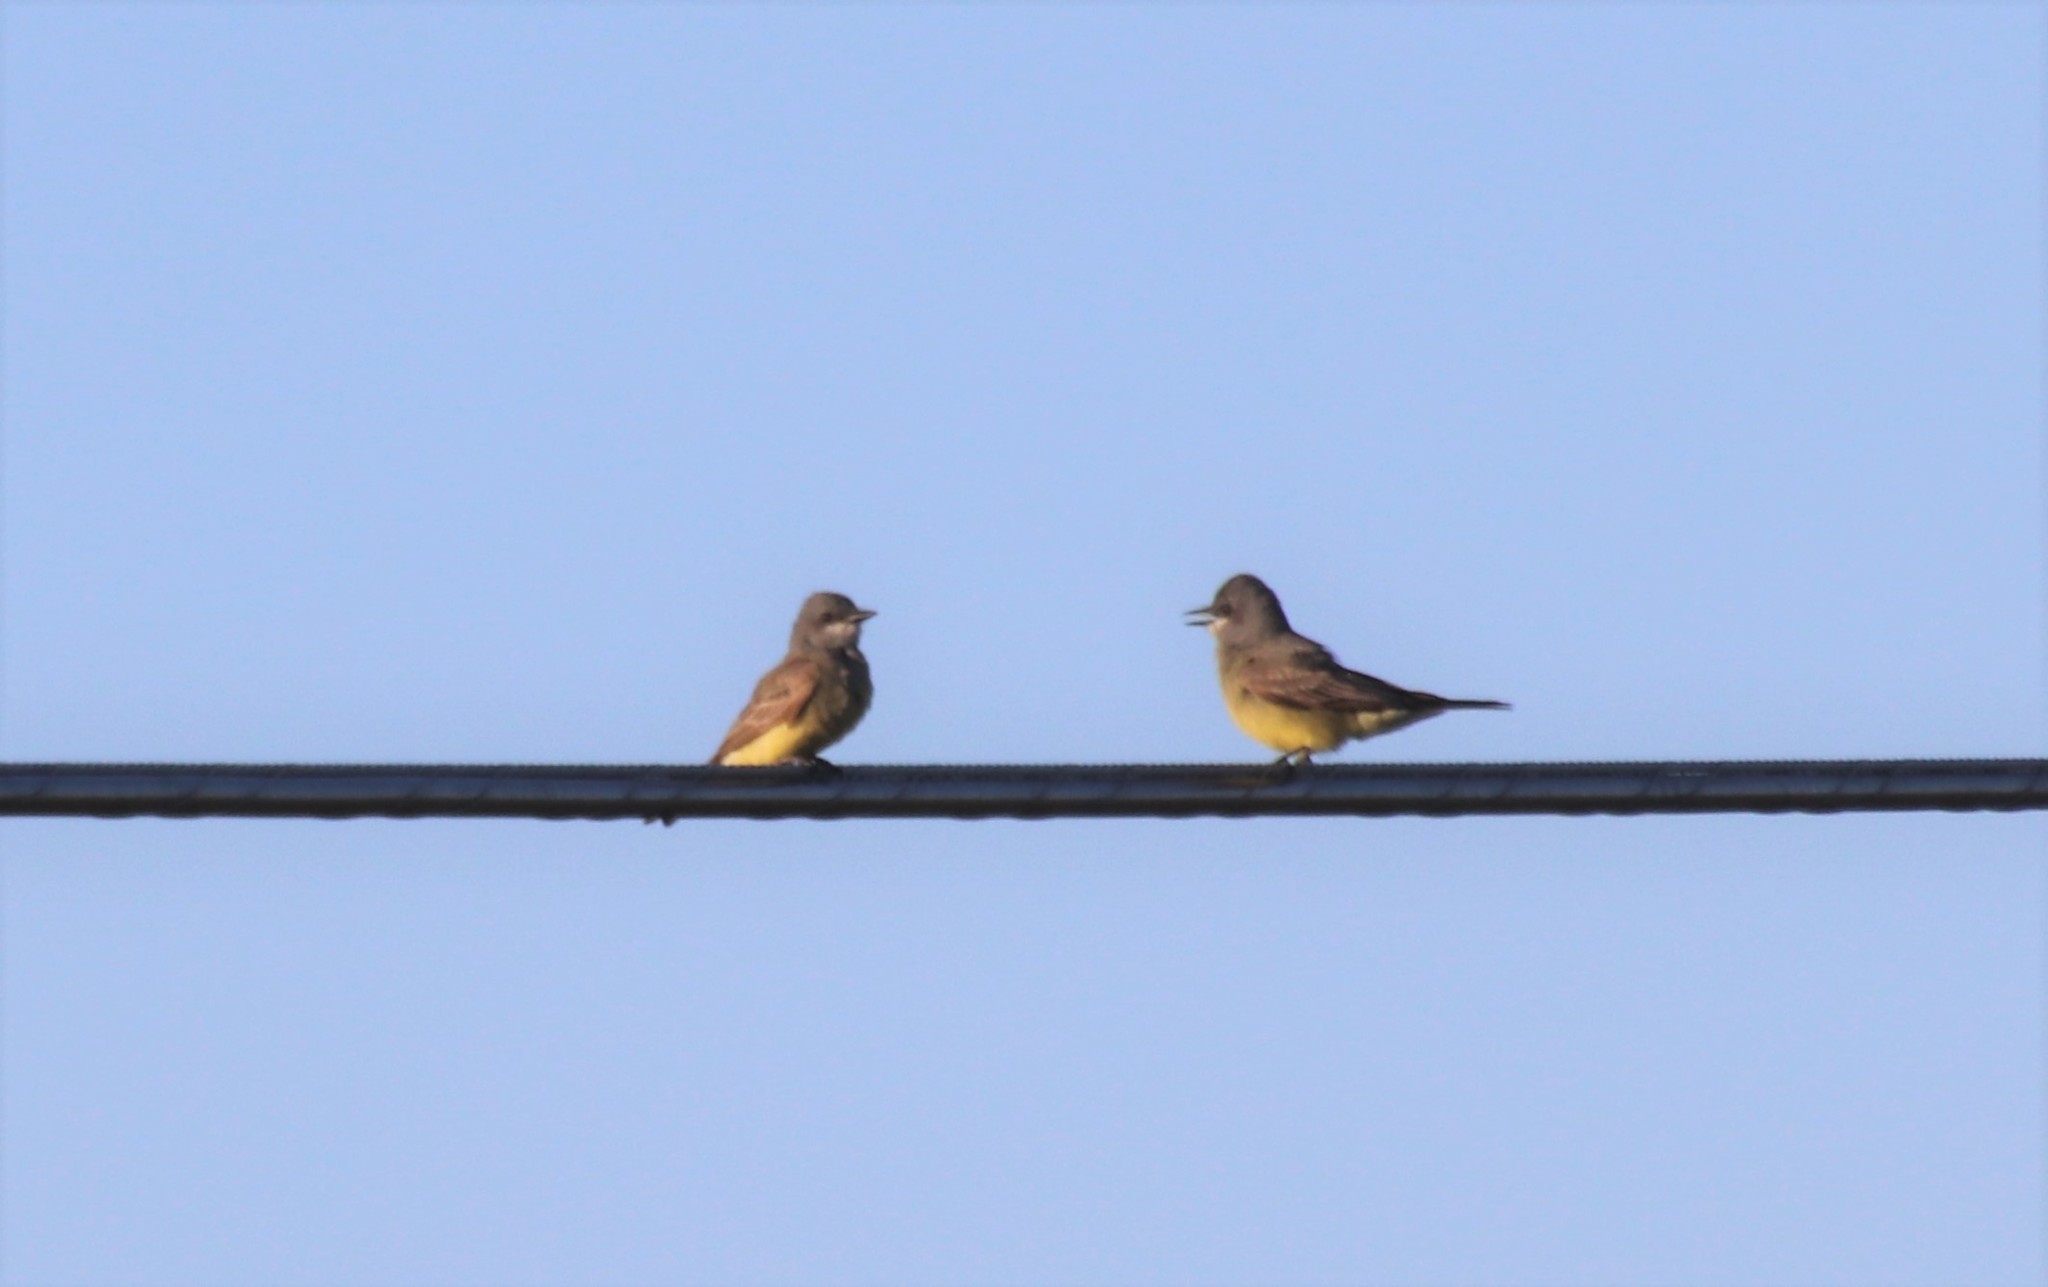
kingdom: Animalia
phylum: Chordata
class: Aves
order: Passeriformes
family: Tyrannidae
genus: Tyrannus
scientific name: Tyrannus vociferans
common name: Cassin's kingbird
